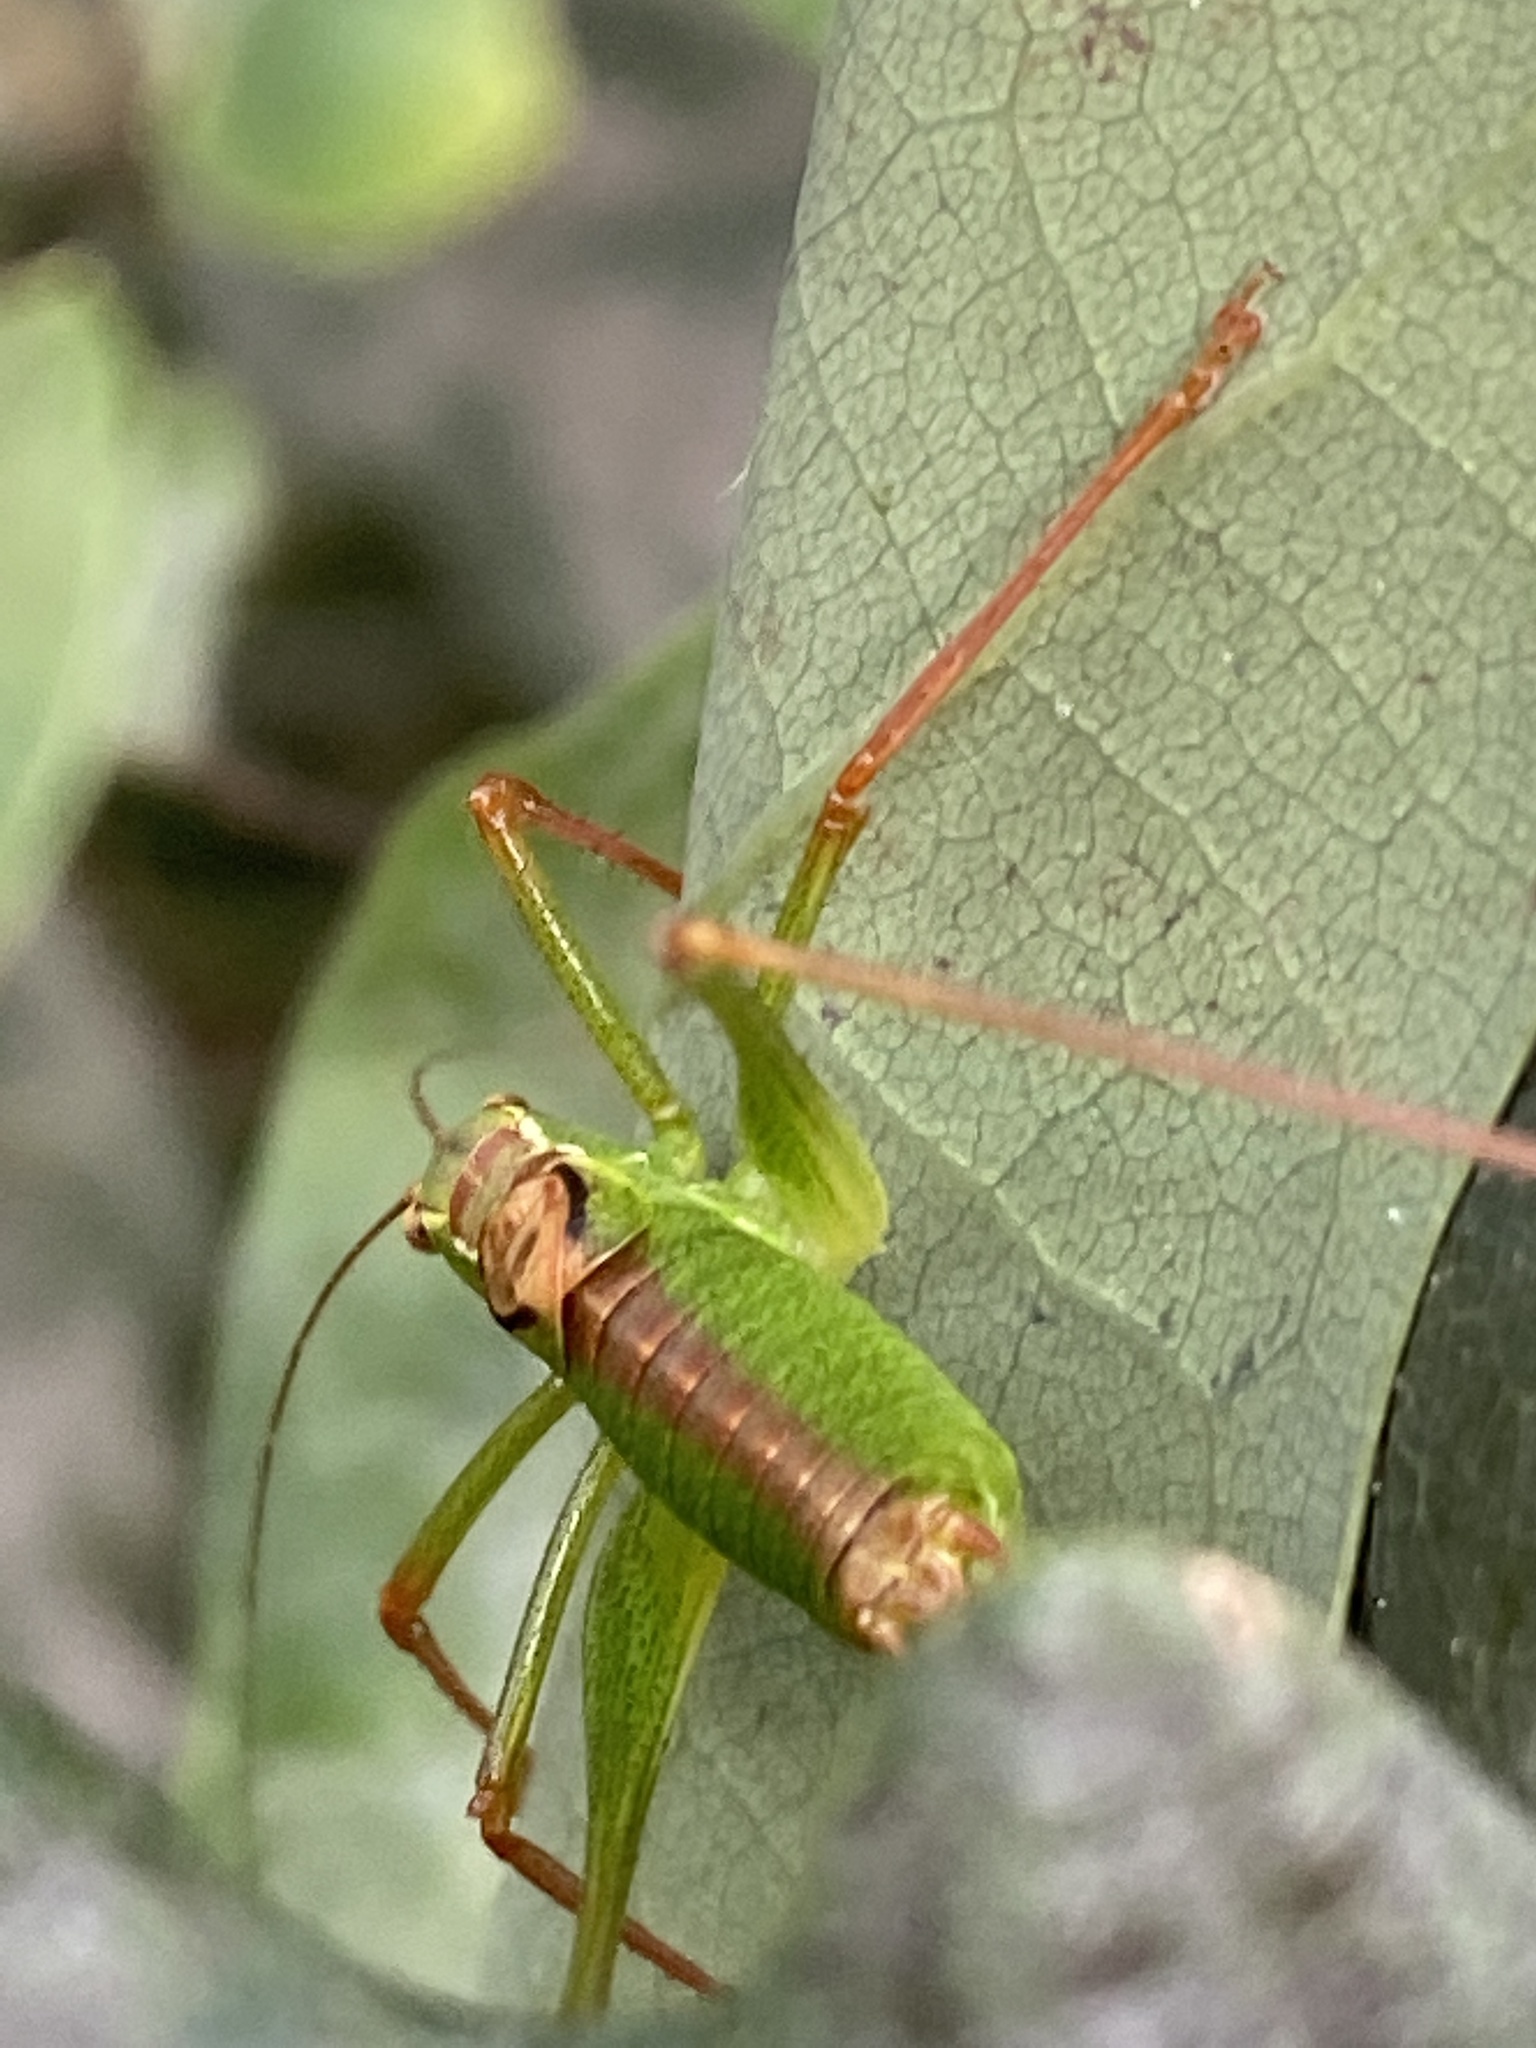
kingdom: Animalia
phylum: Arthropoda
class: Insecta
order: Orthoptera
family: Tettigoniidae
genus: Leptophyes
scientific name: Leptophyes punctatissima
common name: Speckled bush-cricket
